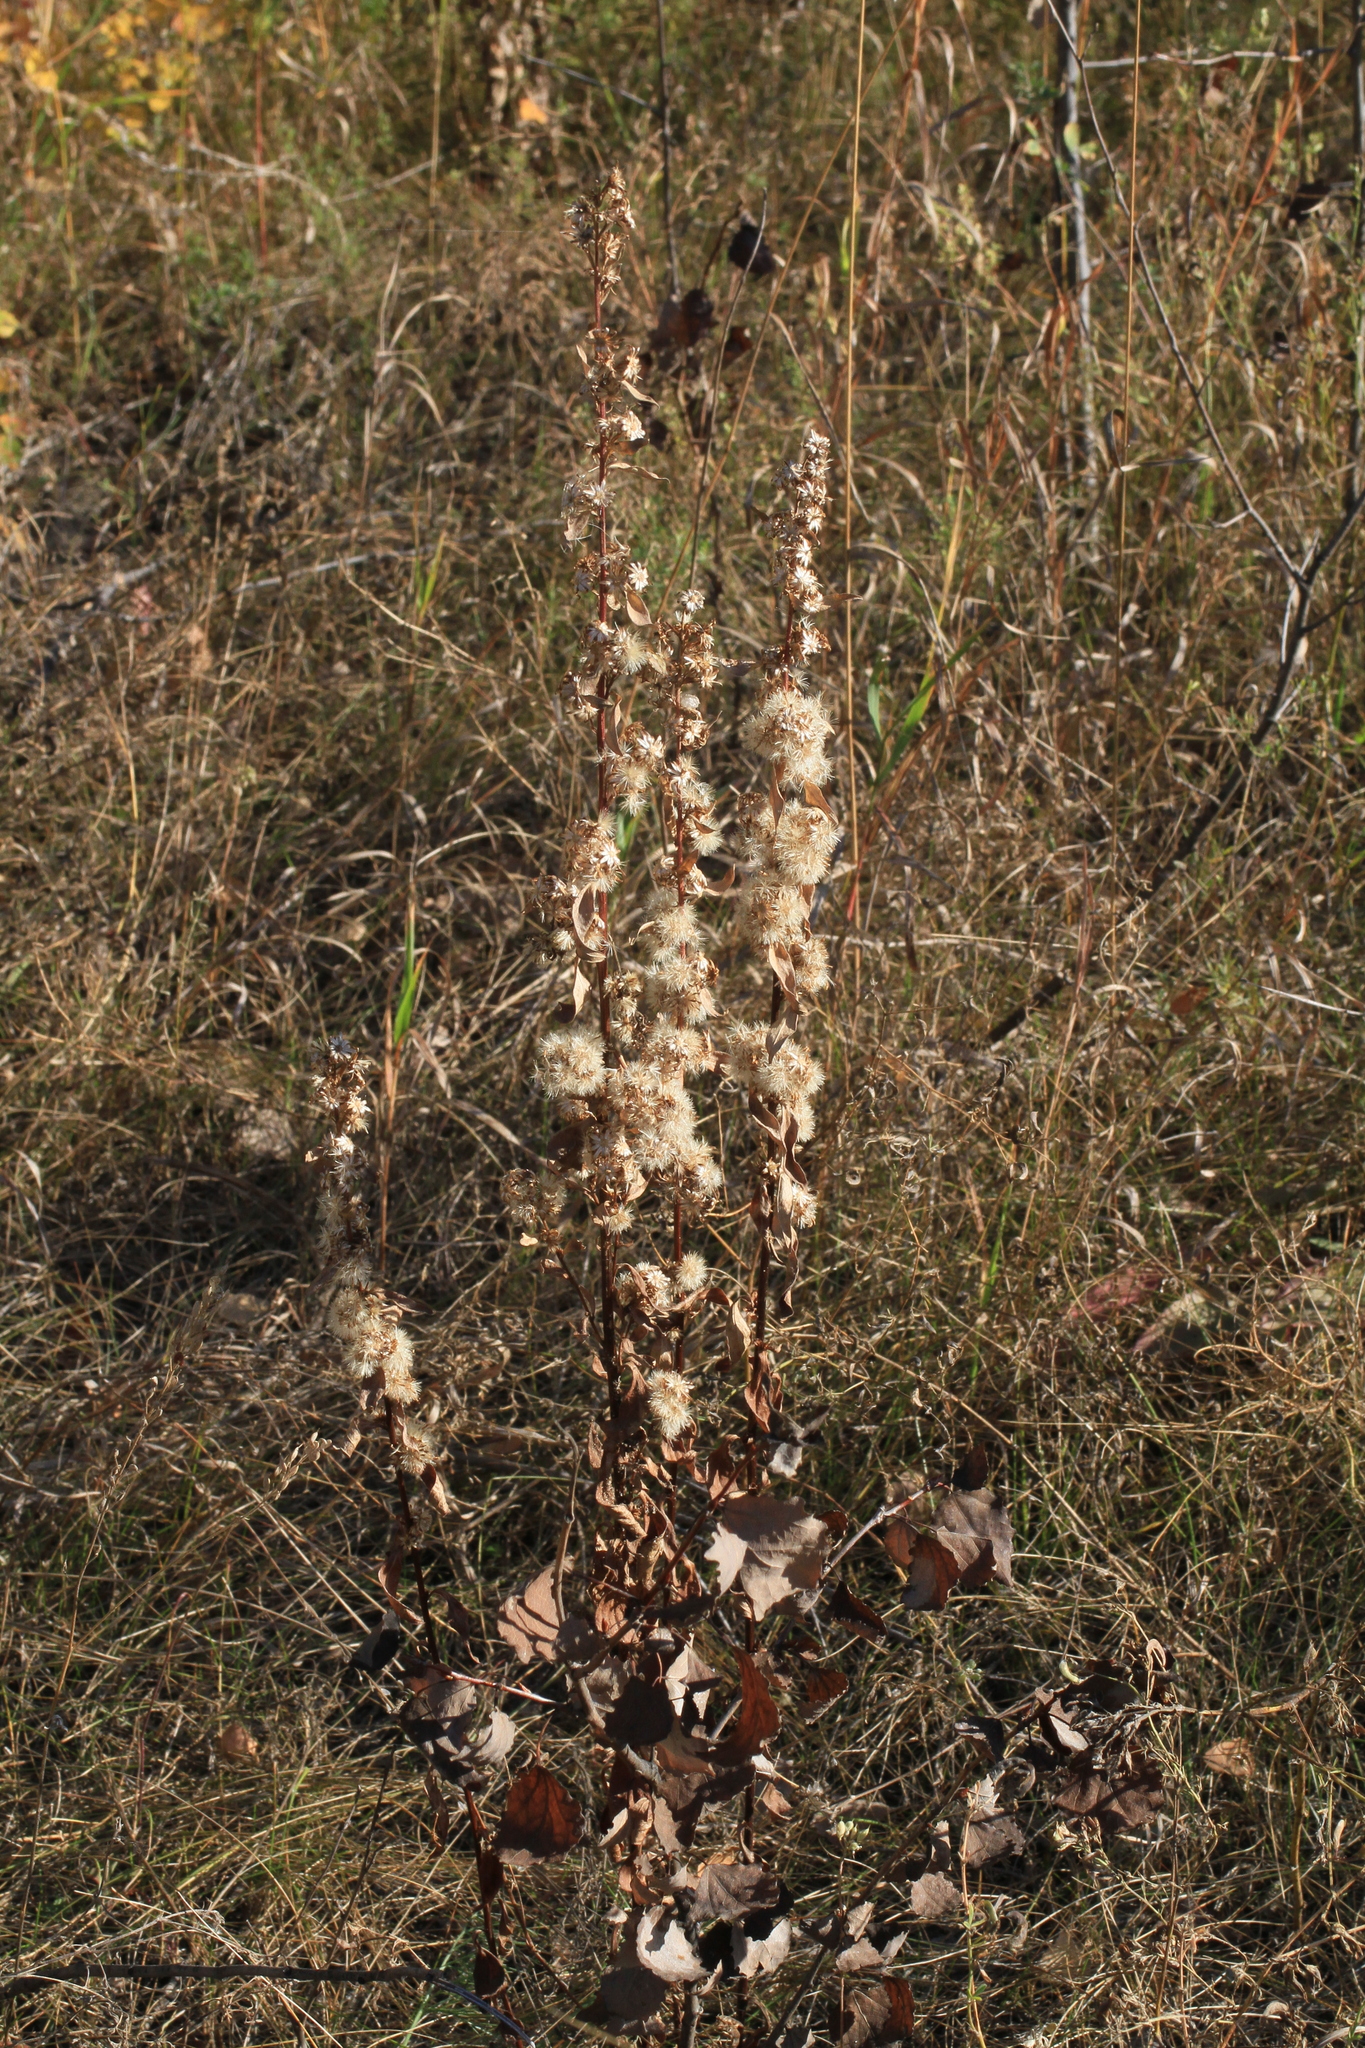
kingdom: Plantae
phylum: Tracheophyta
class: Magnoliopsida
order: Asterales
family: Asteraceae
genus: Erigeron
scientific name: Erigeron acris
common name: Blue fleabane
